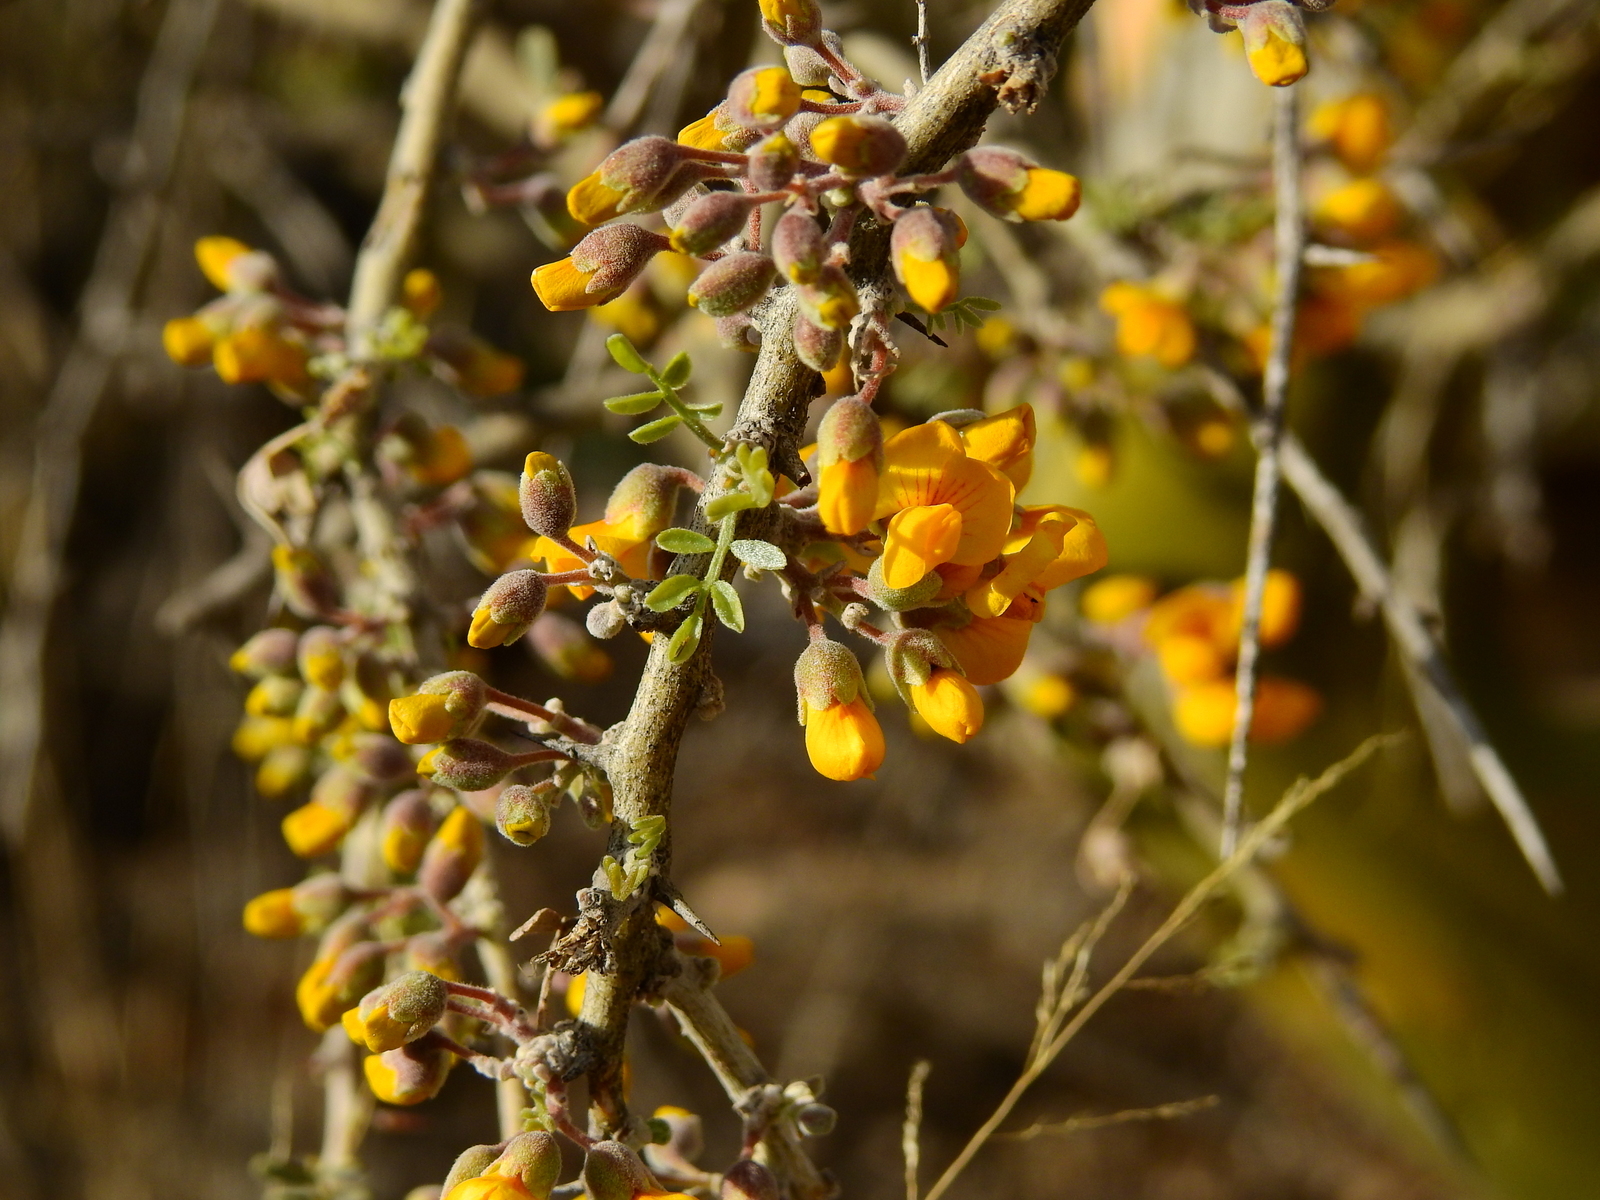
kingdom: Plantae
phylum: Tracheophyta
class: Magnoliopsida
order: Fabales
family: Fabaceae
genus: Geoffroea
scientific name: Geoffroea decorticans
